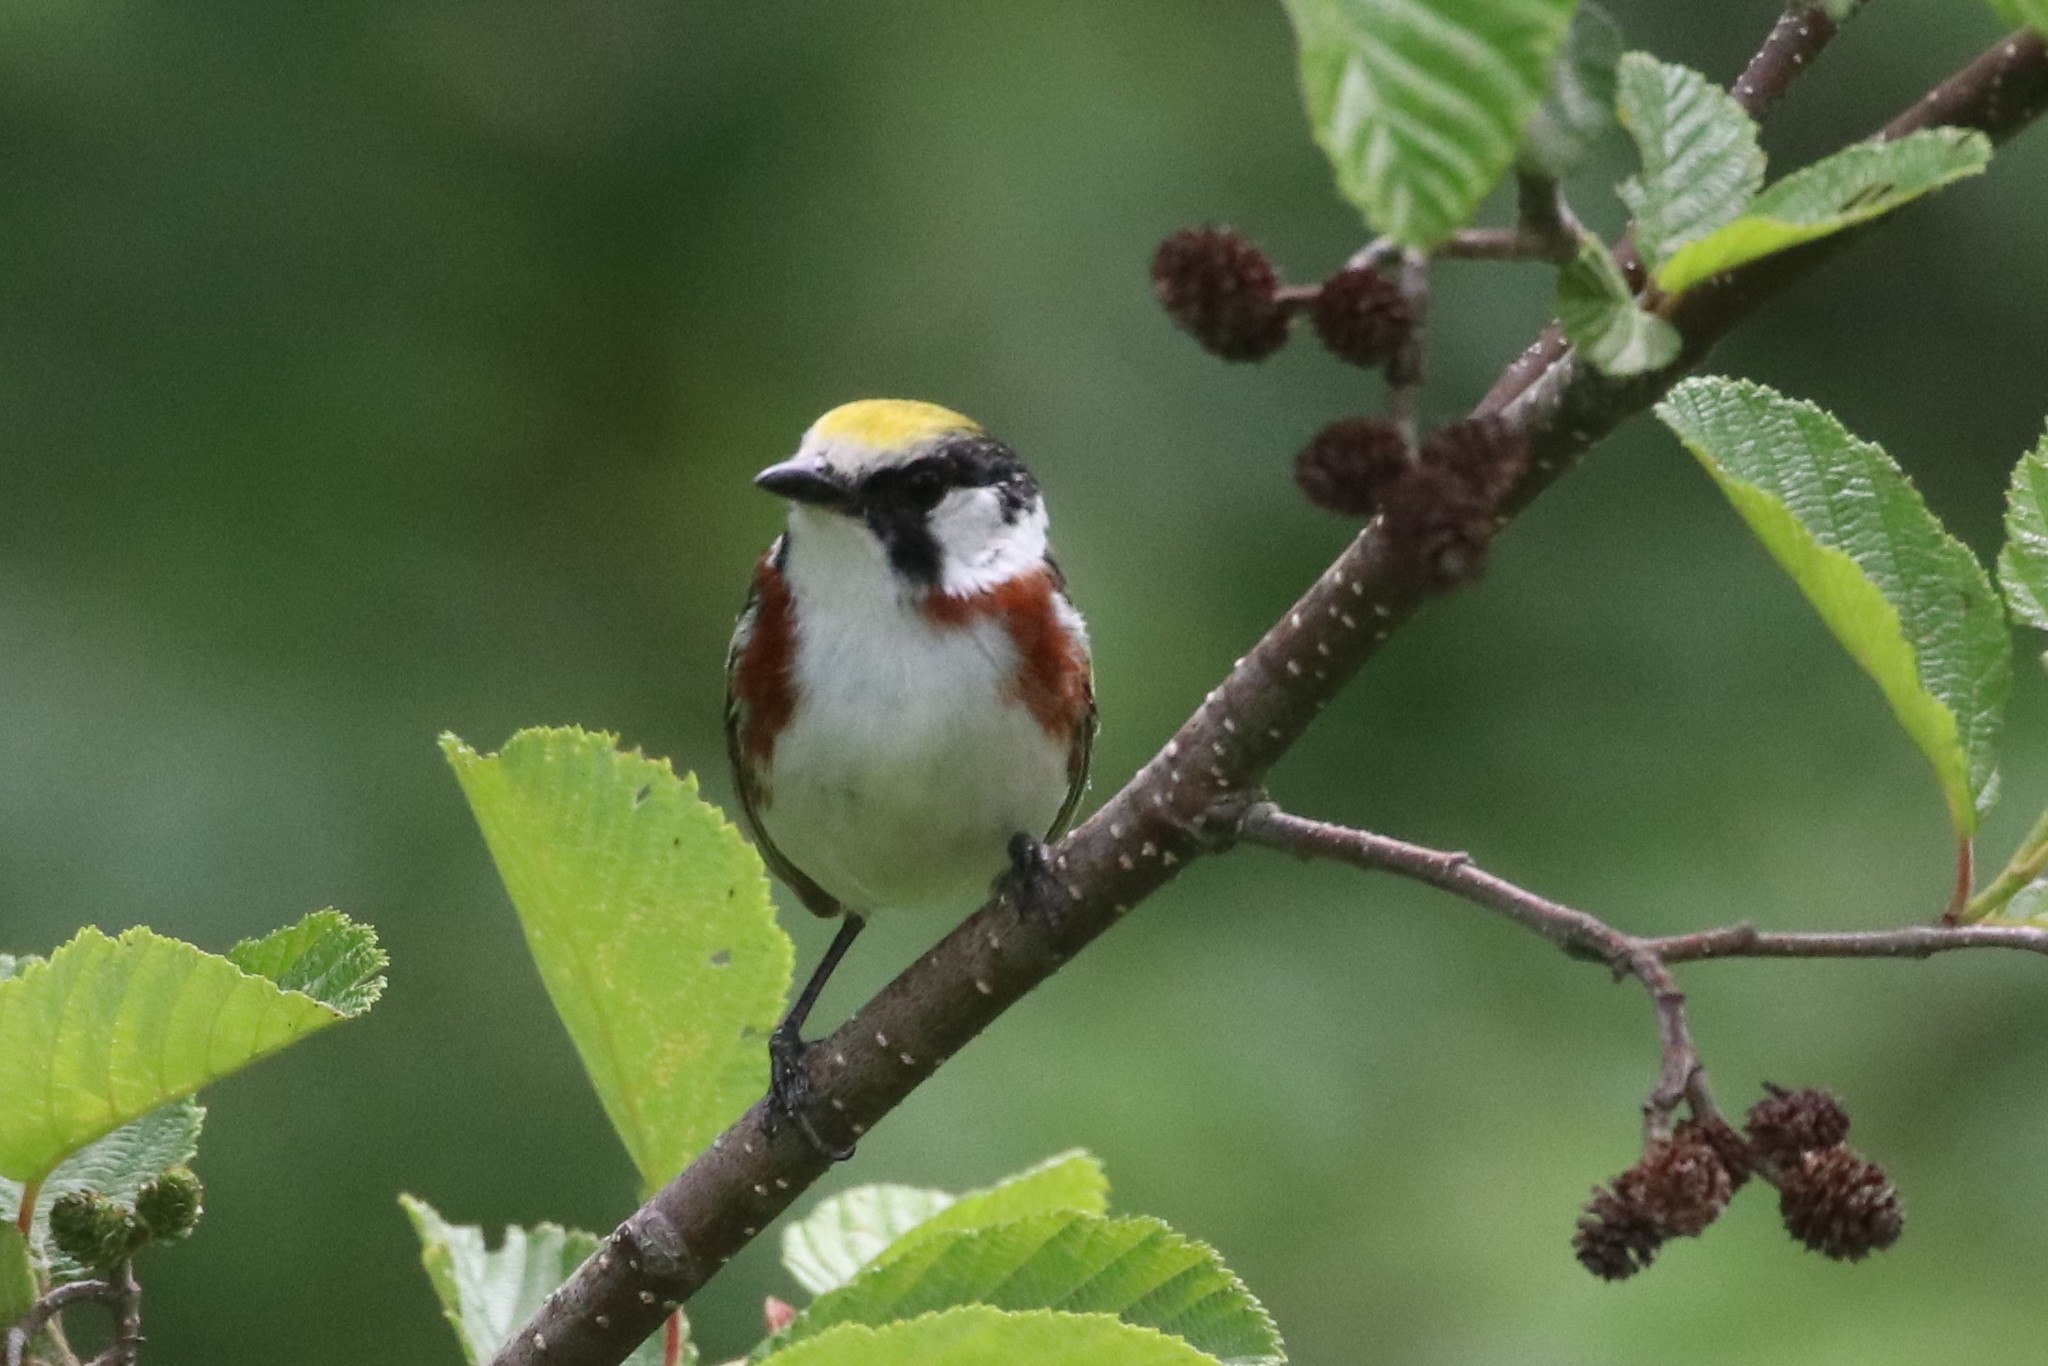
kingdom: Animalia
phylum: Chordata
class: Aves
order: Passeriformes
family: Parulidae
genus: Setophaga
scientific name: Setophaga pensylvanica
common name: Chestnut-sided warbler
